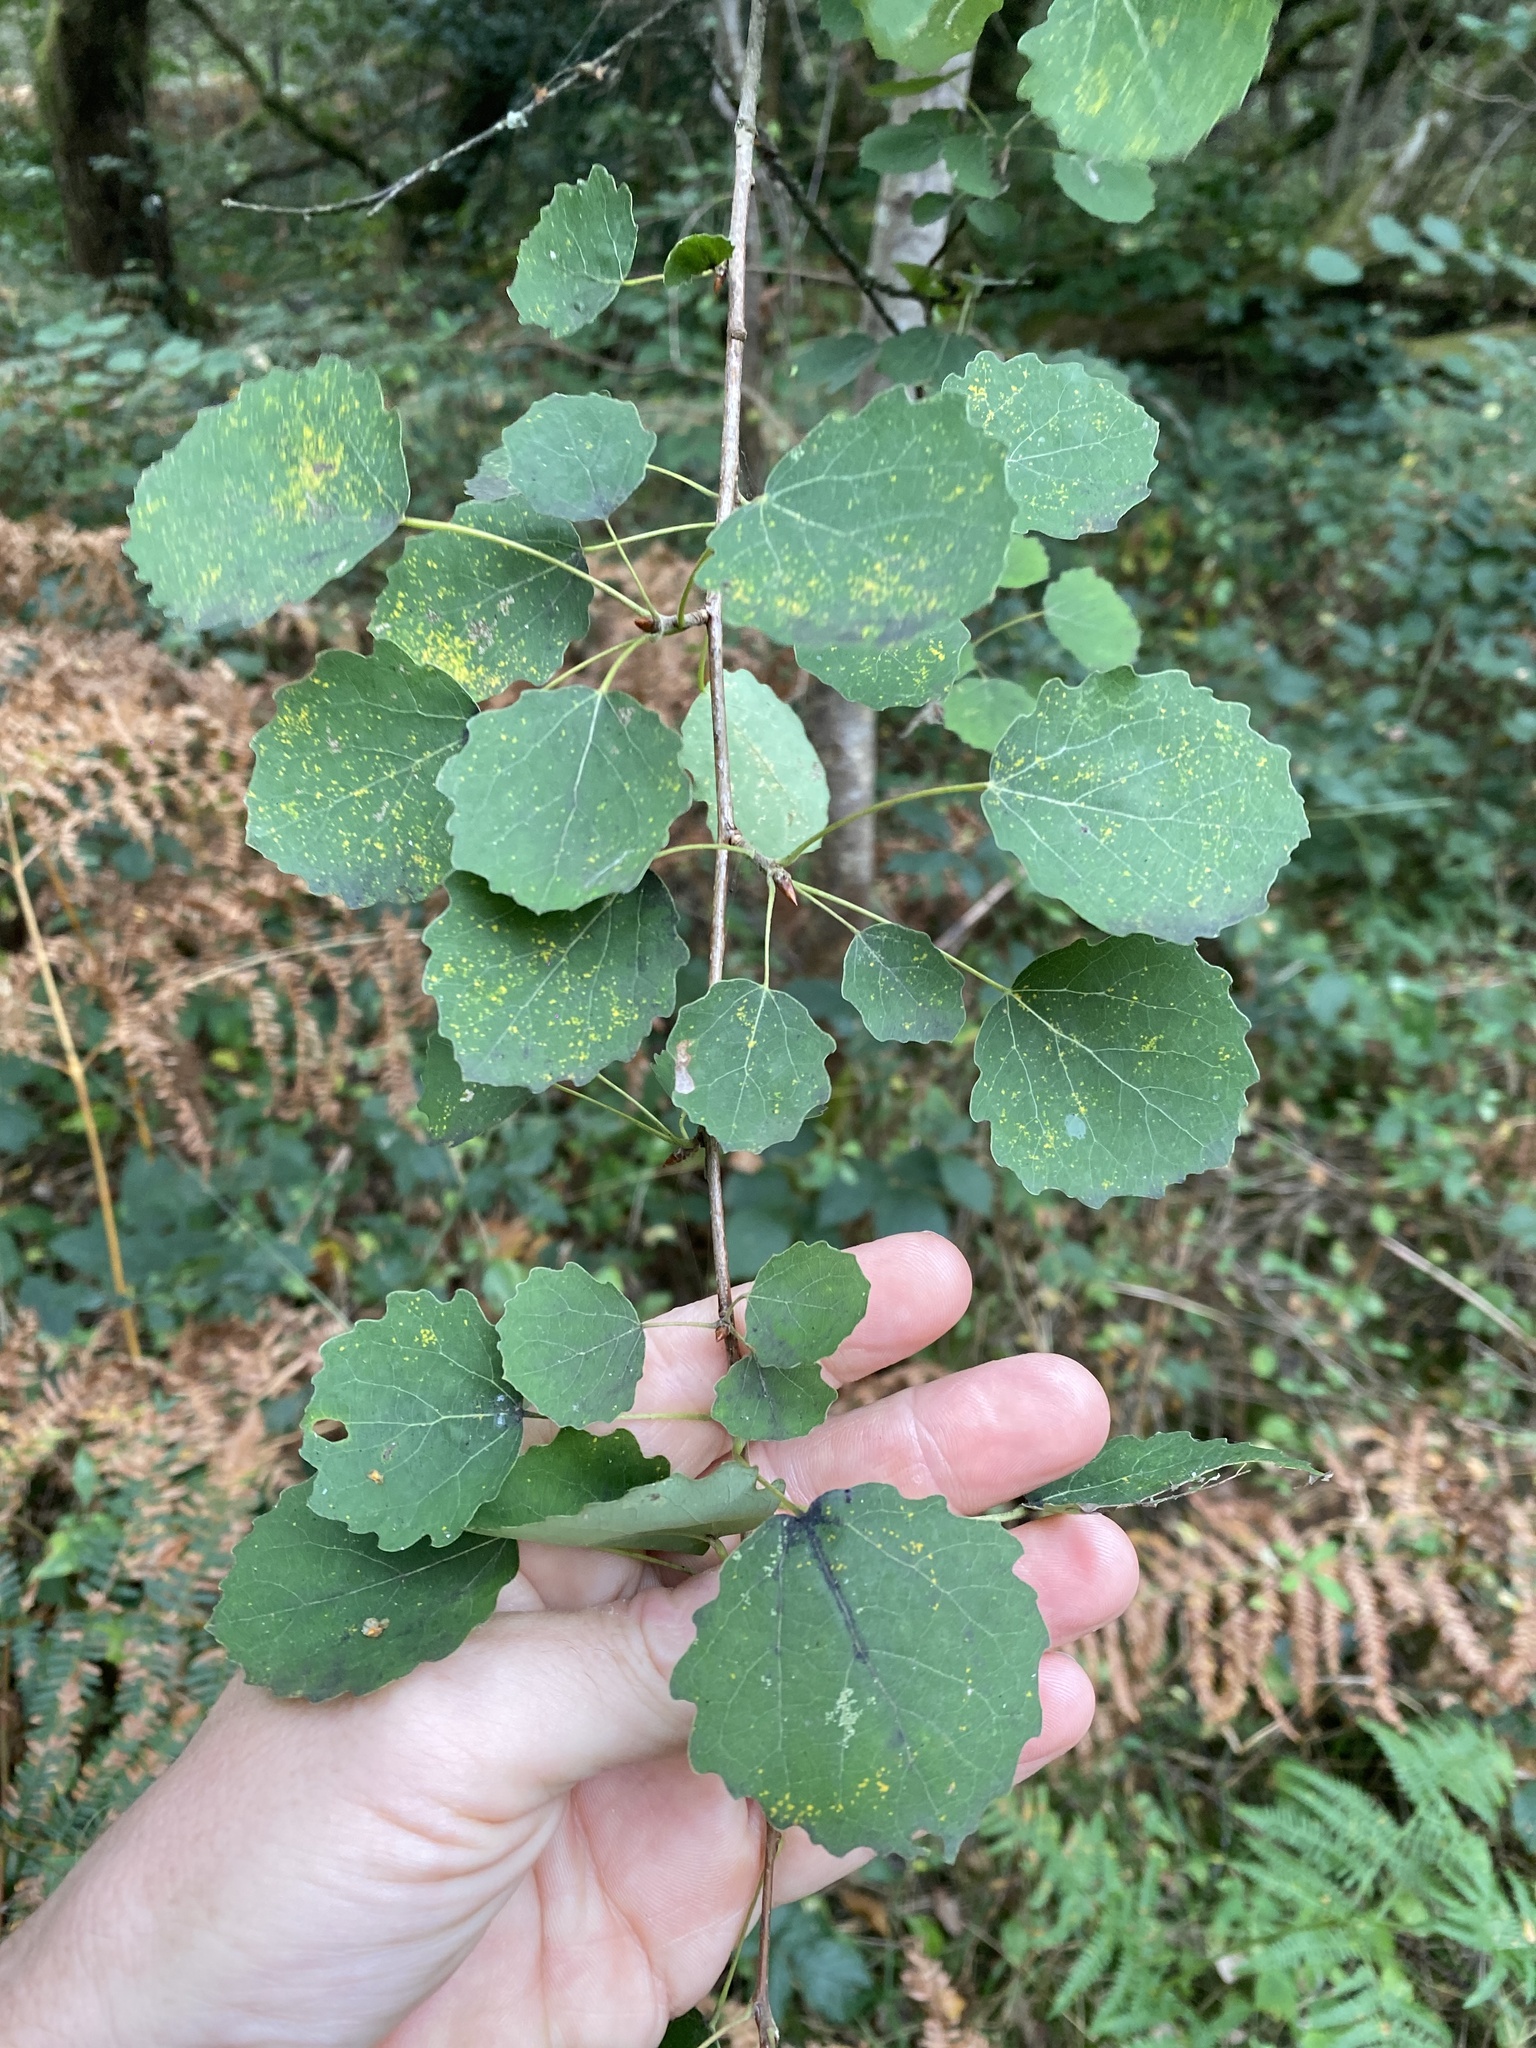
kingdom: Plantae
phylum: Tracheophyta
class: Magnoliopsida
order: Malpighiales
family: Salicaceae
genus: Populus
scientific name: Populus tremula
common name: European aspen
